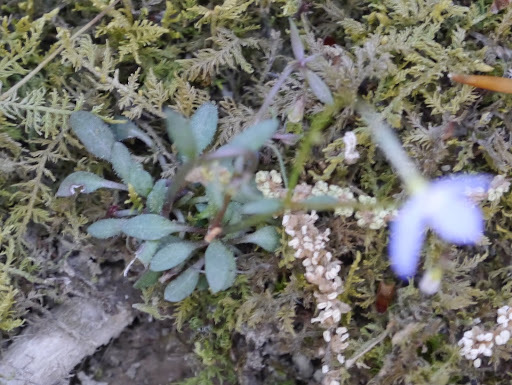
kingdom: Plantae
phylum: Tracheophyta
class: Magnoliopsida
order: Gentianales
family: Rubiaceae
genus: Houstonia
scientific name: Houstonia caerulea
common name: Bluets
